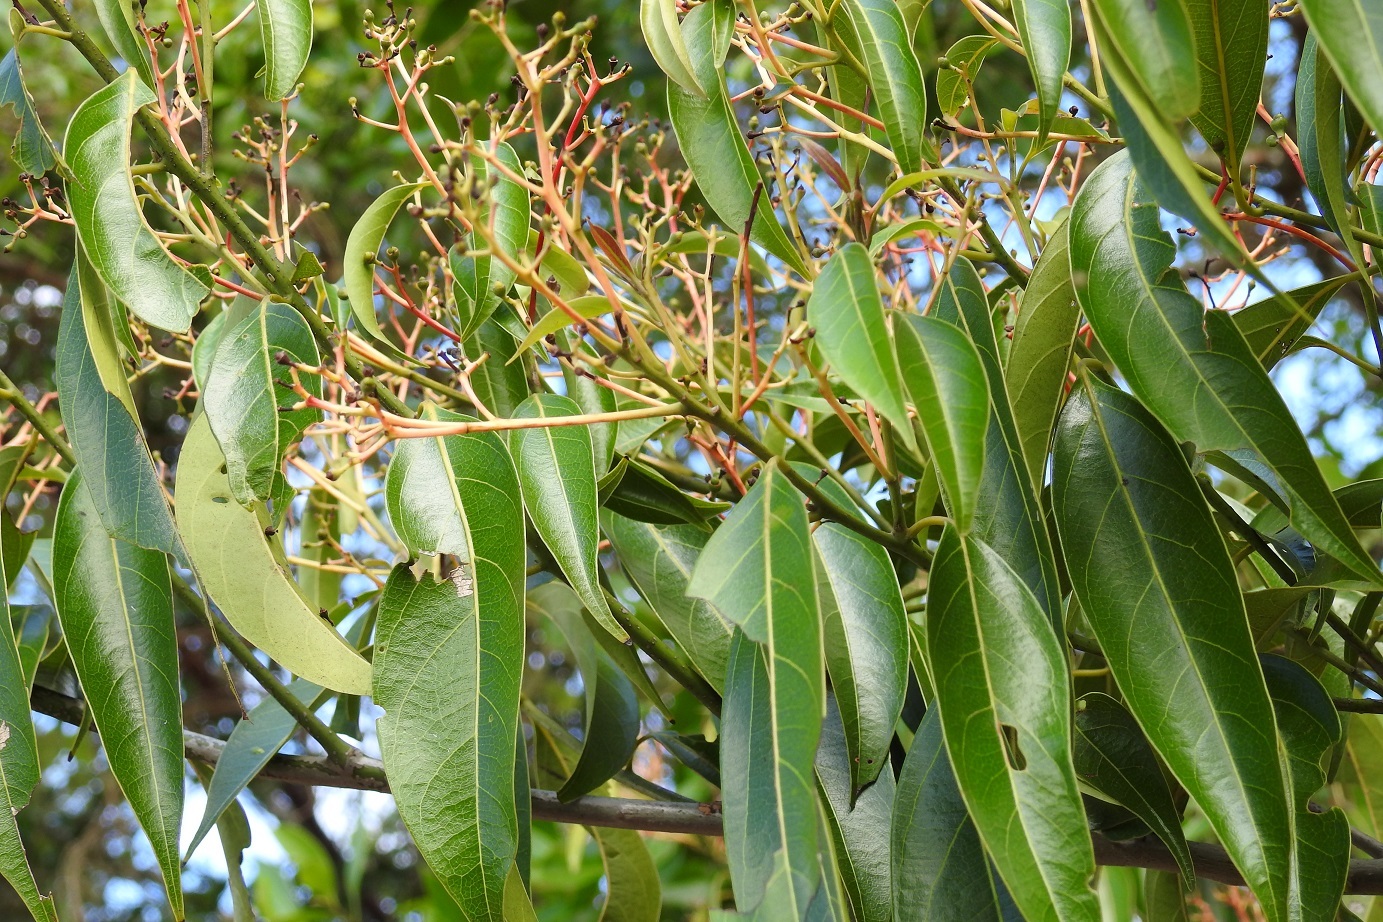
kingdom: Plantae
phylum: Tracheophyta
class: Magnoliopsida
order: Laurales
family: Lauraceae
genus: Damburneya
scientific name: Damburneya salicifolia
